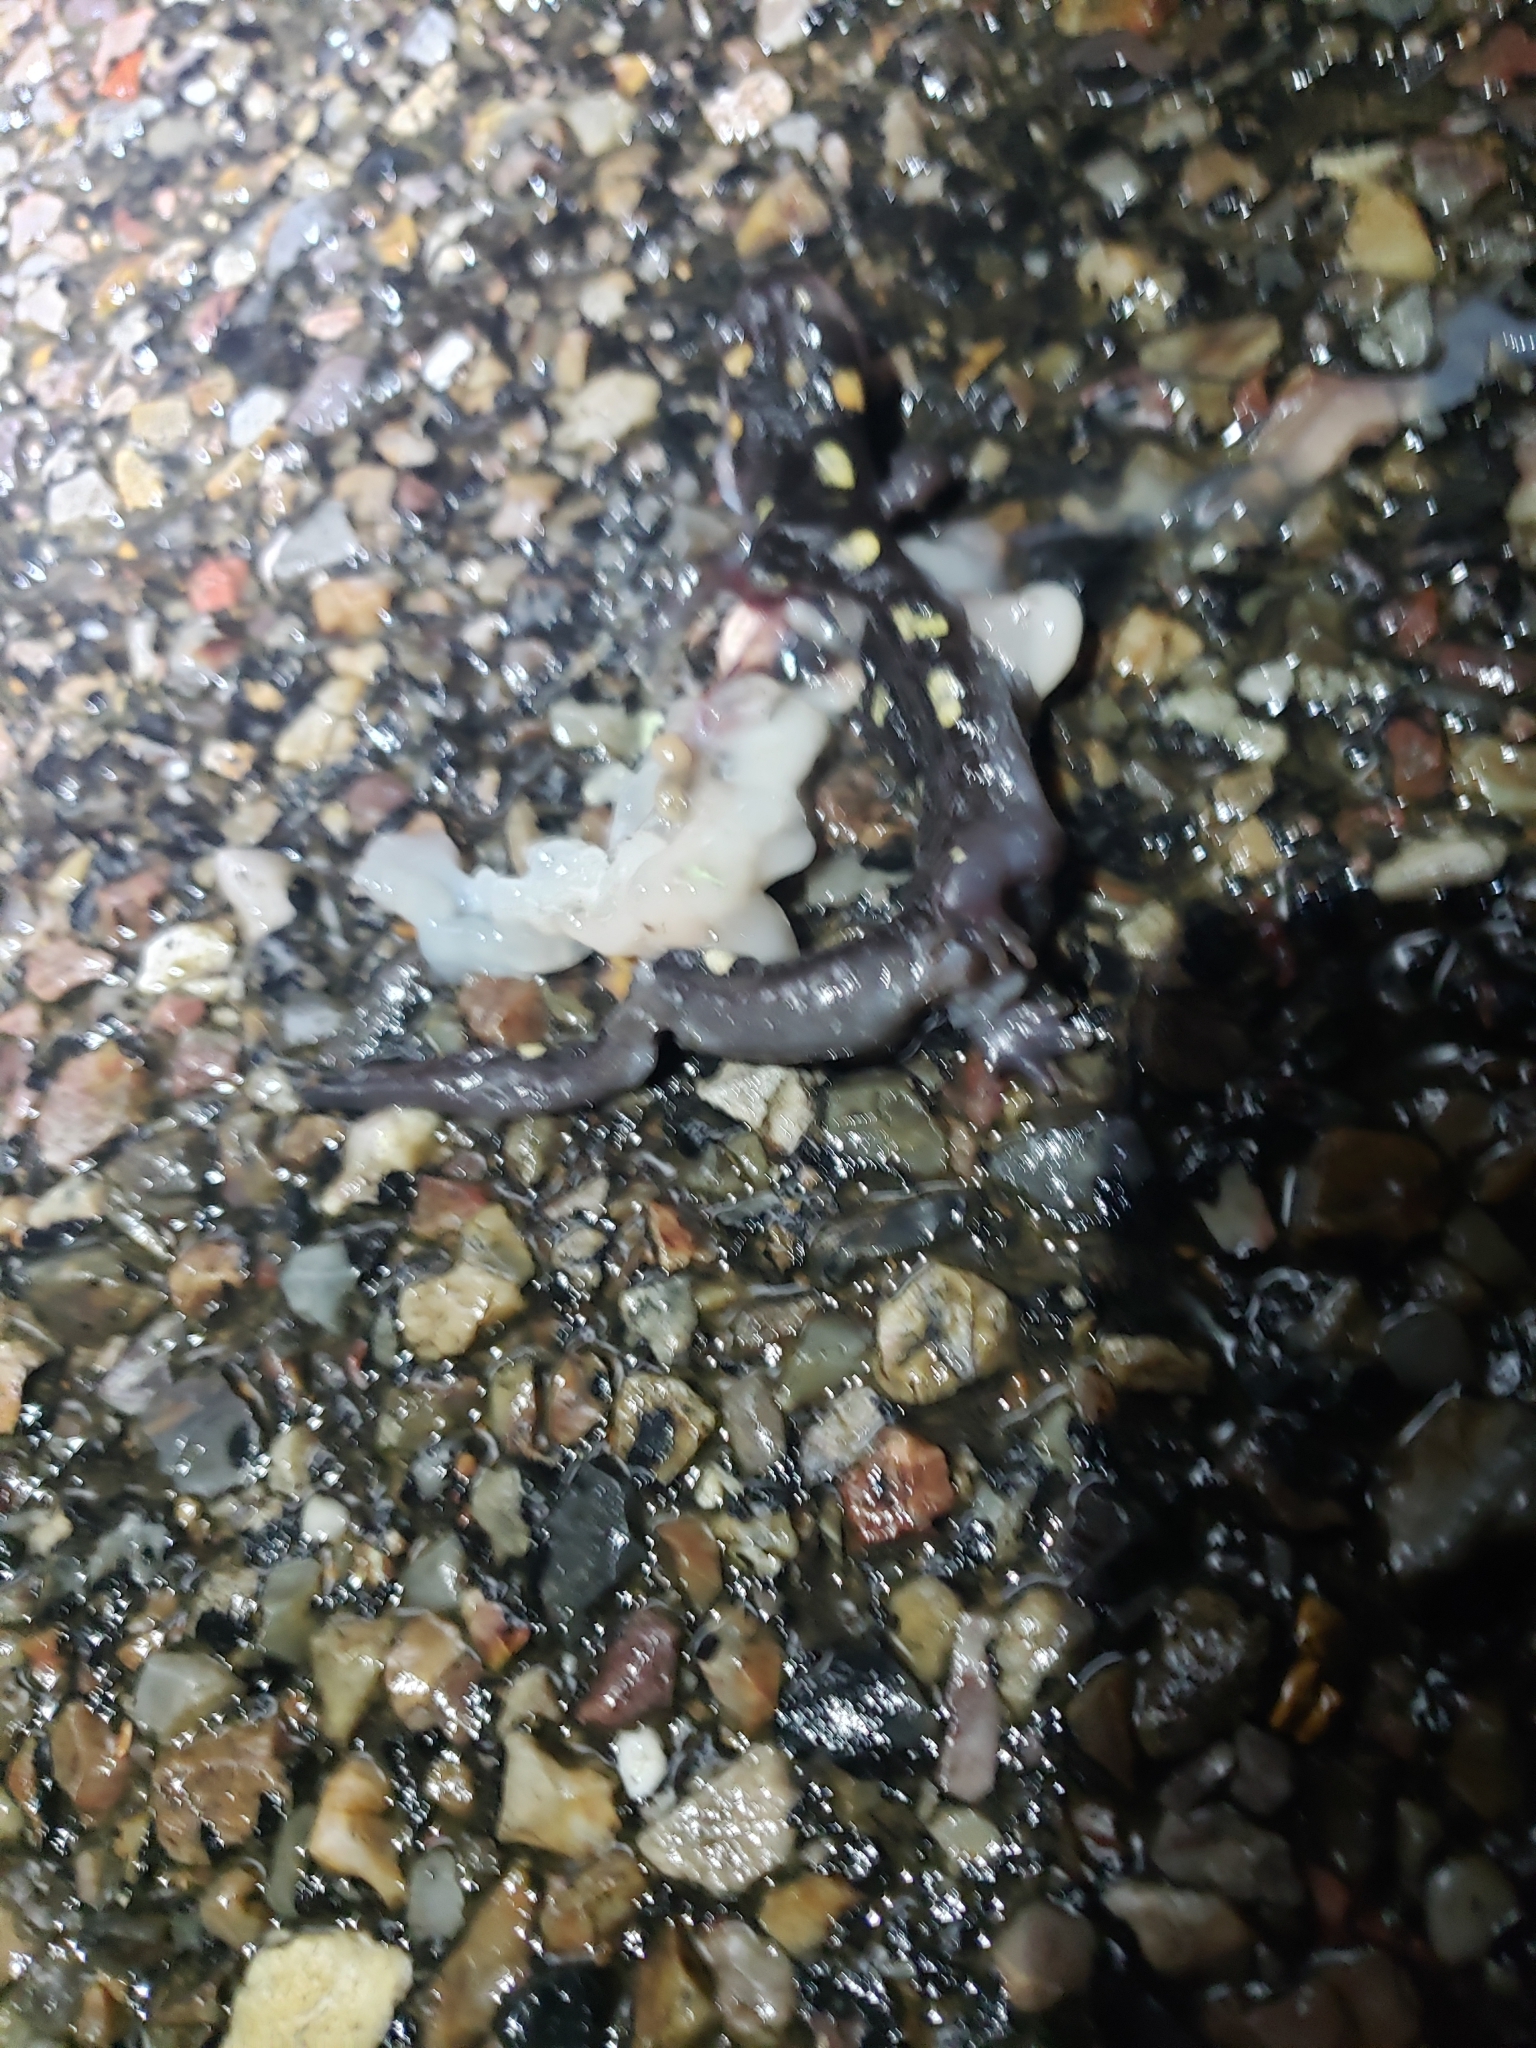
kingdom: Animalia
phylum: Chordata
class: Amphibia
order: Caudata
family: Ambystomatidae
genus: Ambystoma
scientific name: Ambystoma maculatum
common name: Spotted salamander
